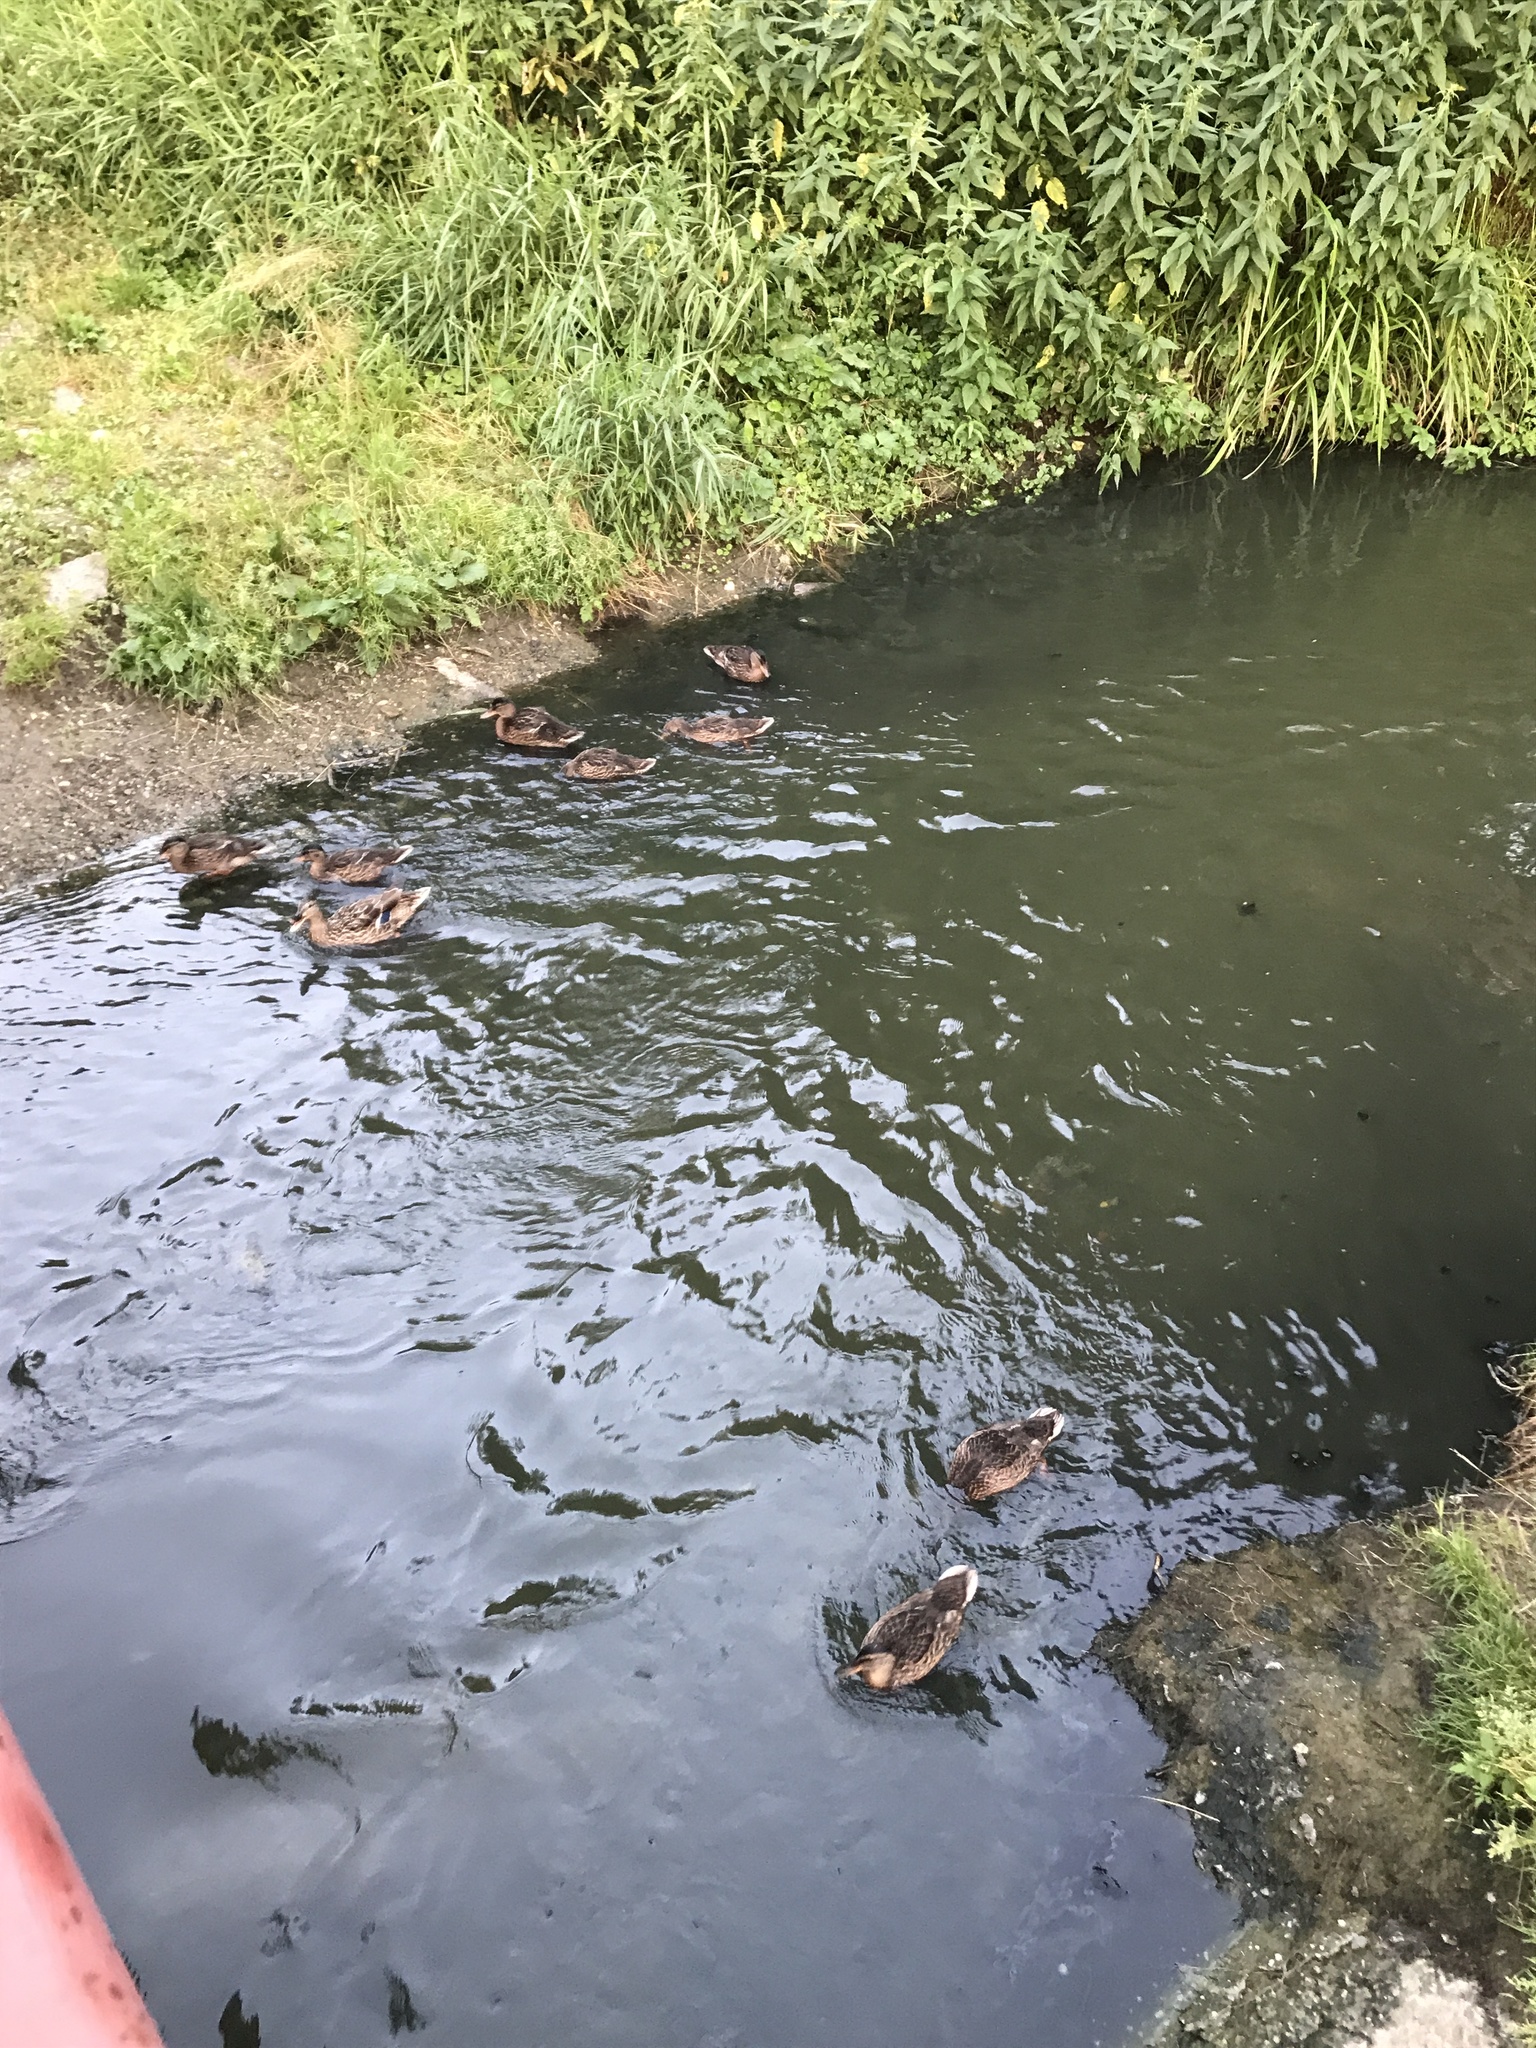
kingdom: Animalia
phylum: Chordata
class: Aves
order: Anseriformes
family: Anatidae
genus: Anas
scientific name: Anas platyrhynchos
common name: Mallard
